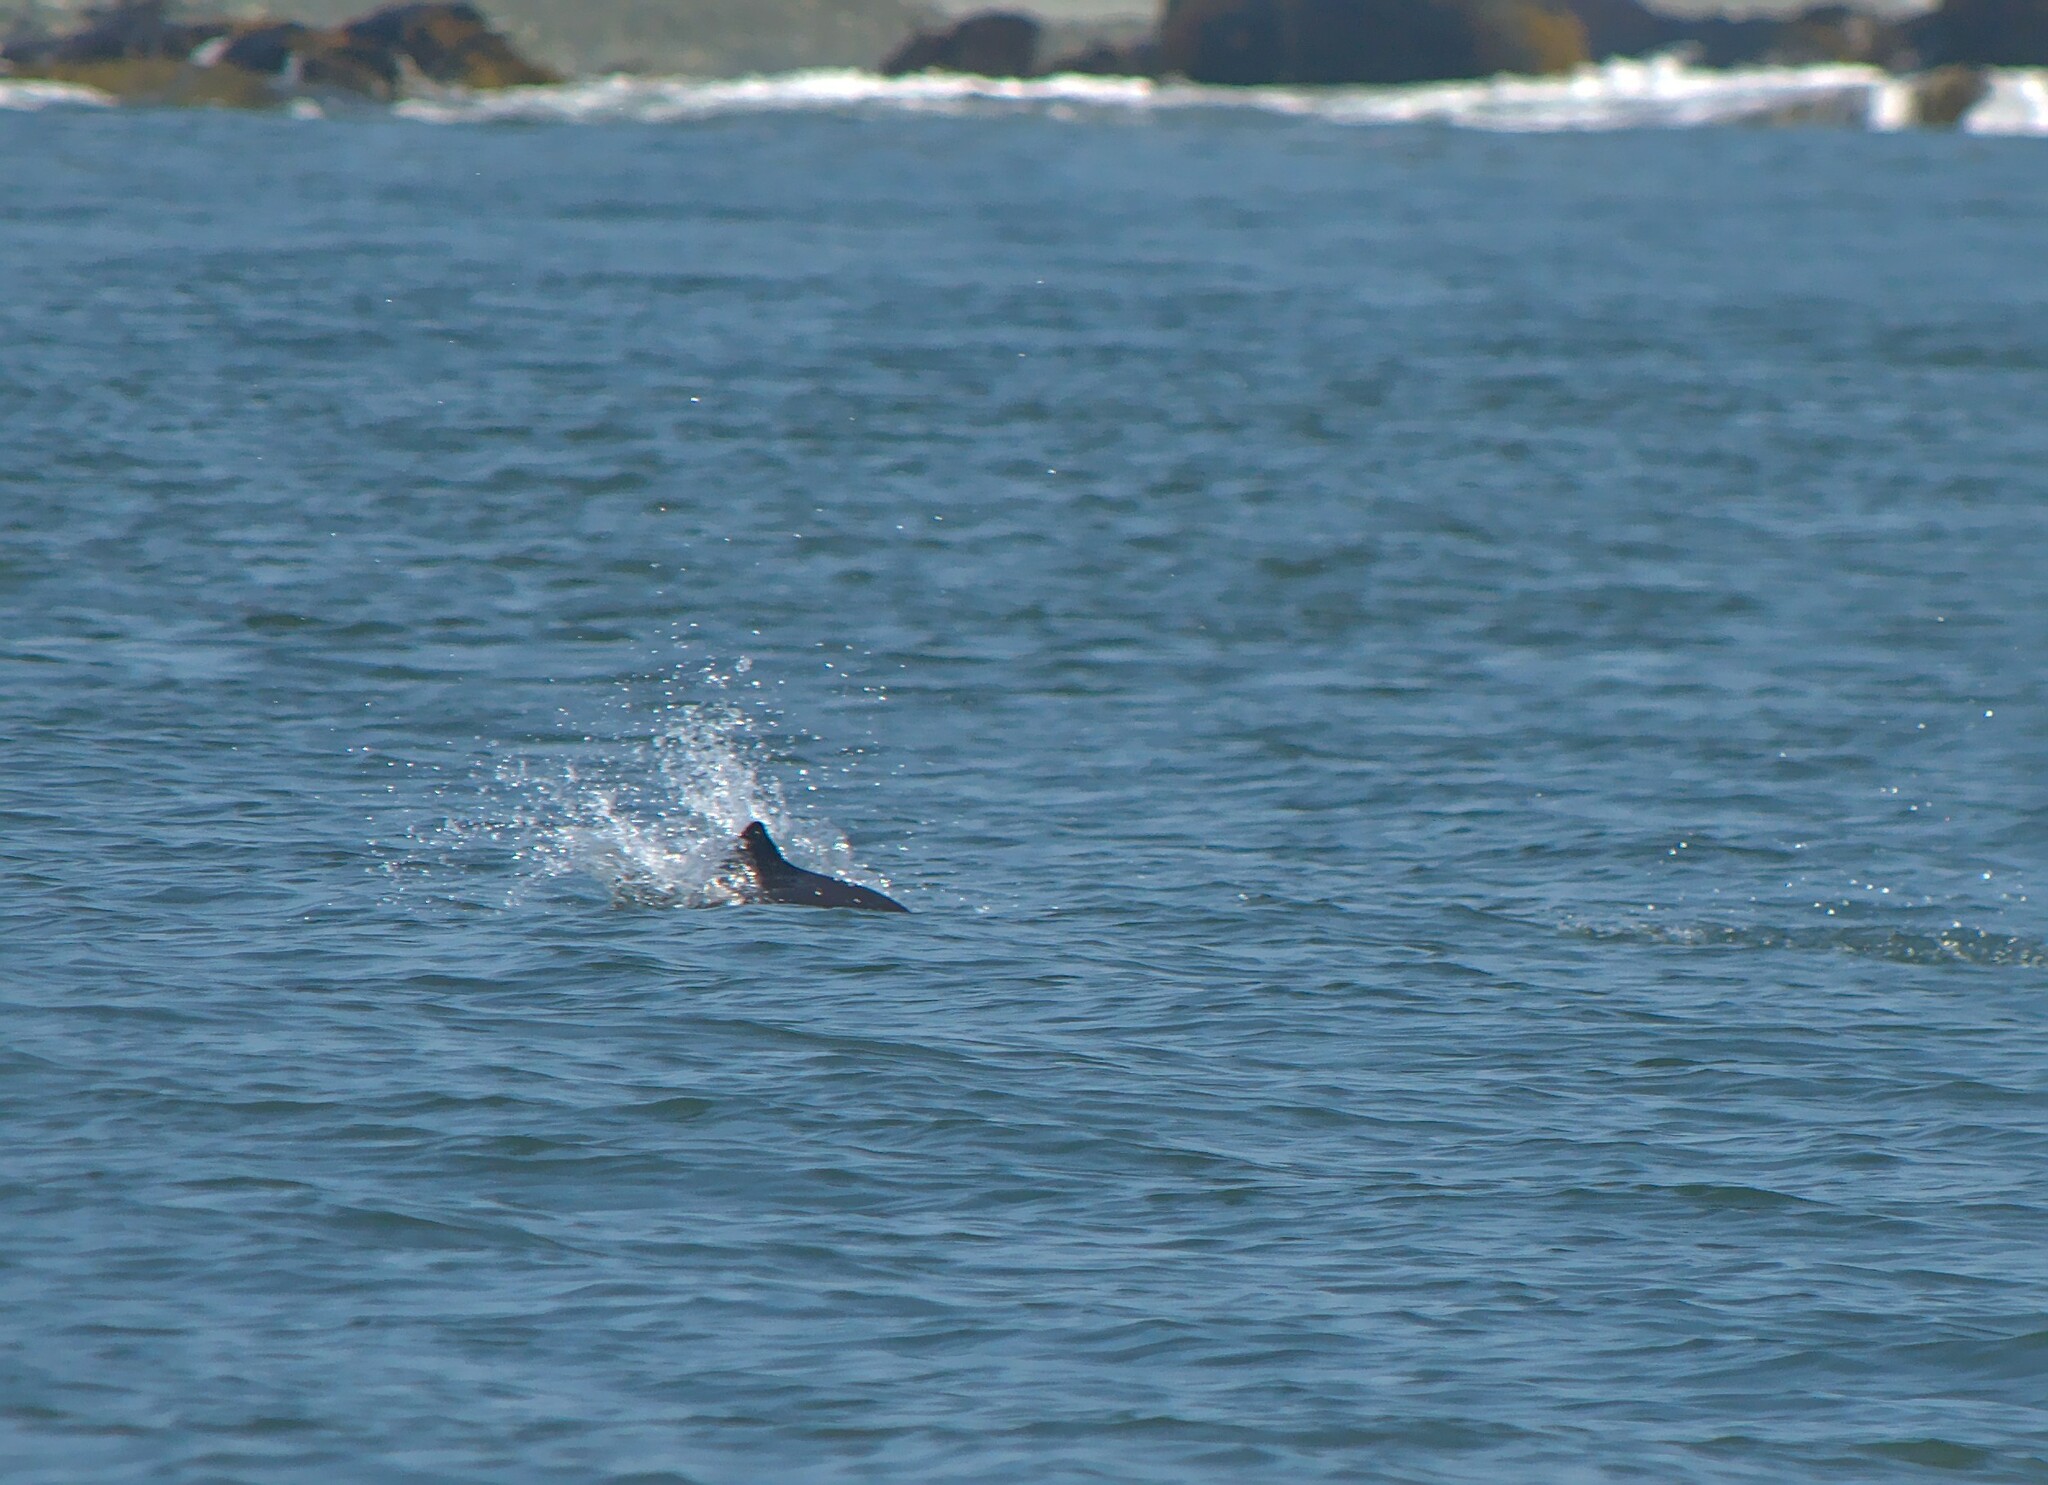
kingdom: Animalia
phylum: Chordata
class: Mammalia
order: Cetacea
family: Phocoenidae
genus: Phocoena
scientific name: Phocoena phocoena
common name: Harbor porpoise
